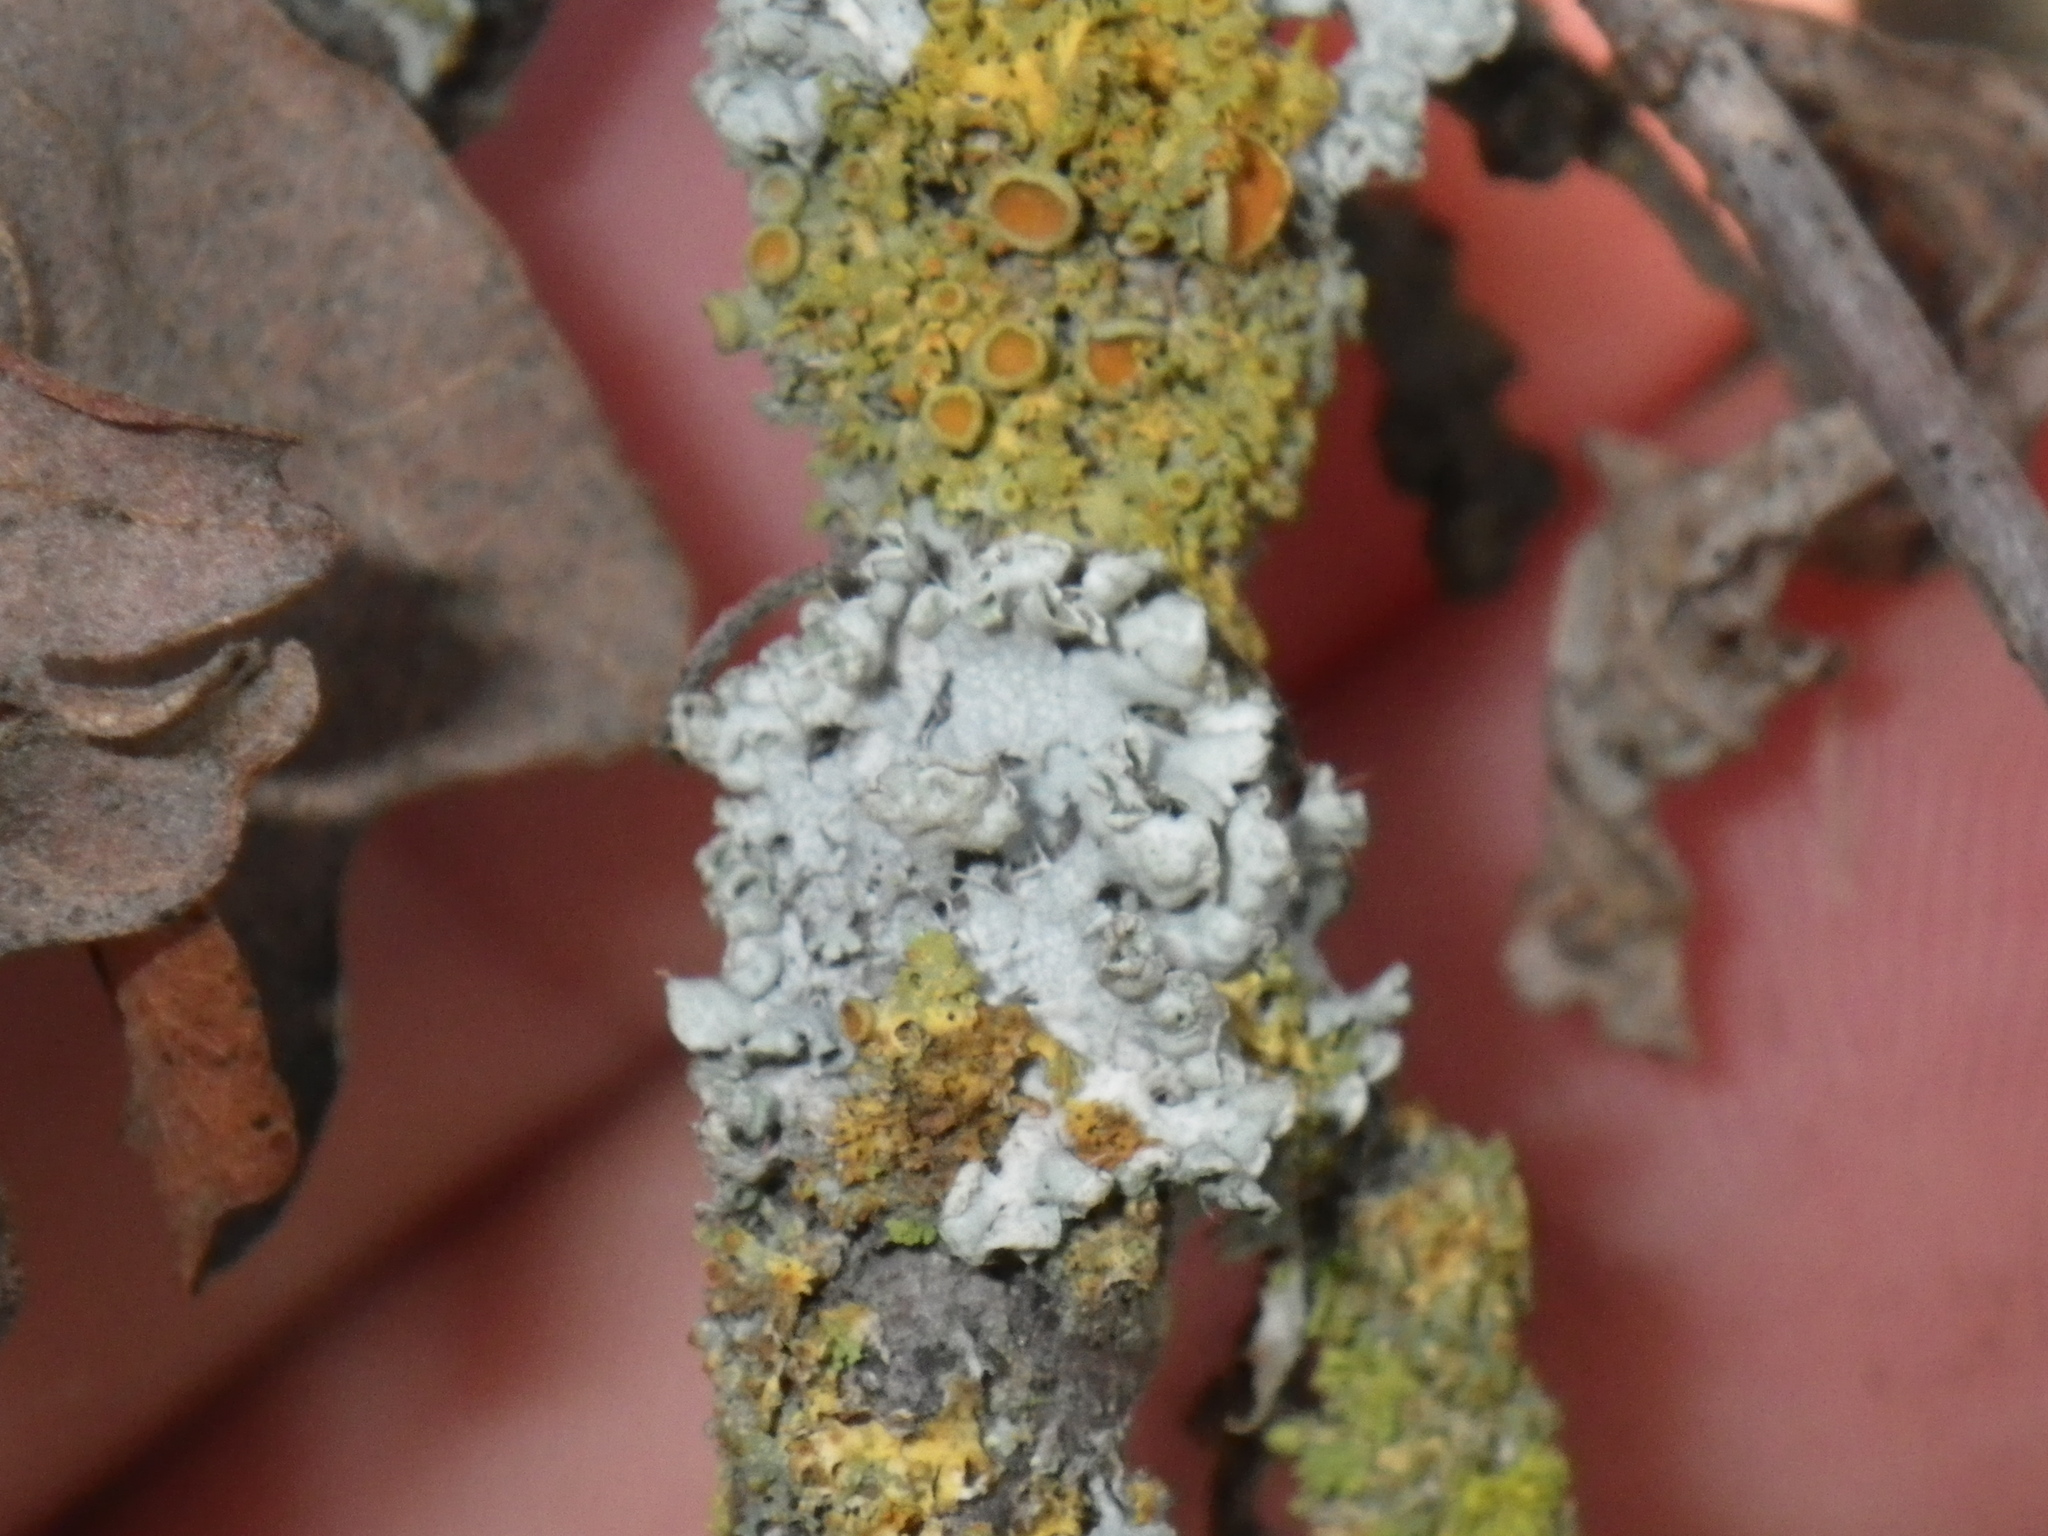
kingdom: Fungi
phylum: Ascomycota
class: Lecanoromycetes
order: Caliciales
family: Physciaceae
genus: Physcia
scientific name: Physcia adscendens
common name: Hooded rosette lichen
